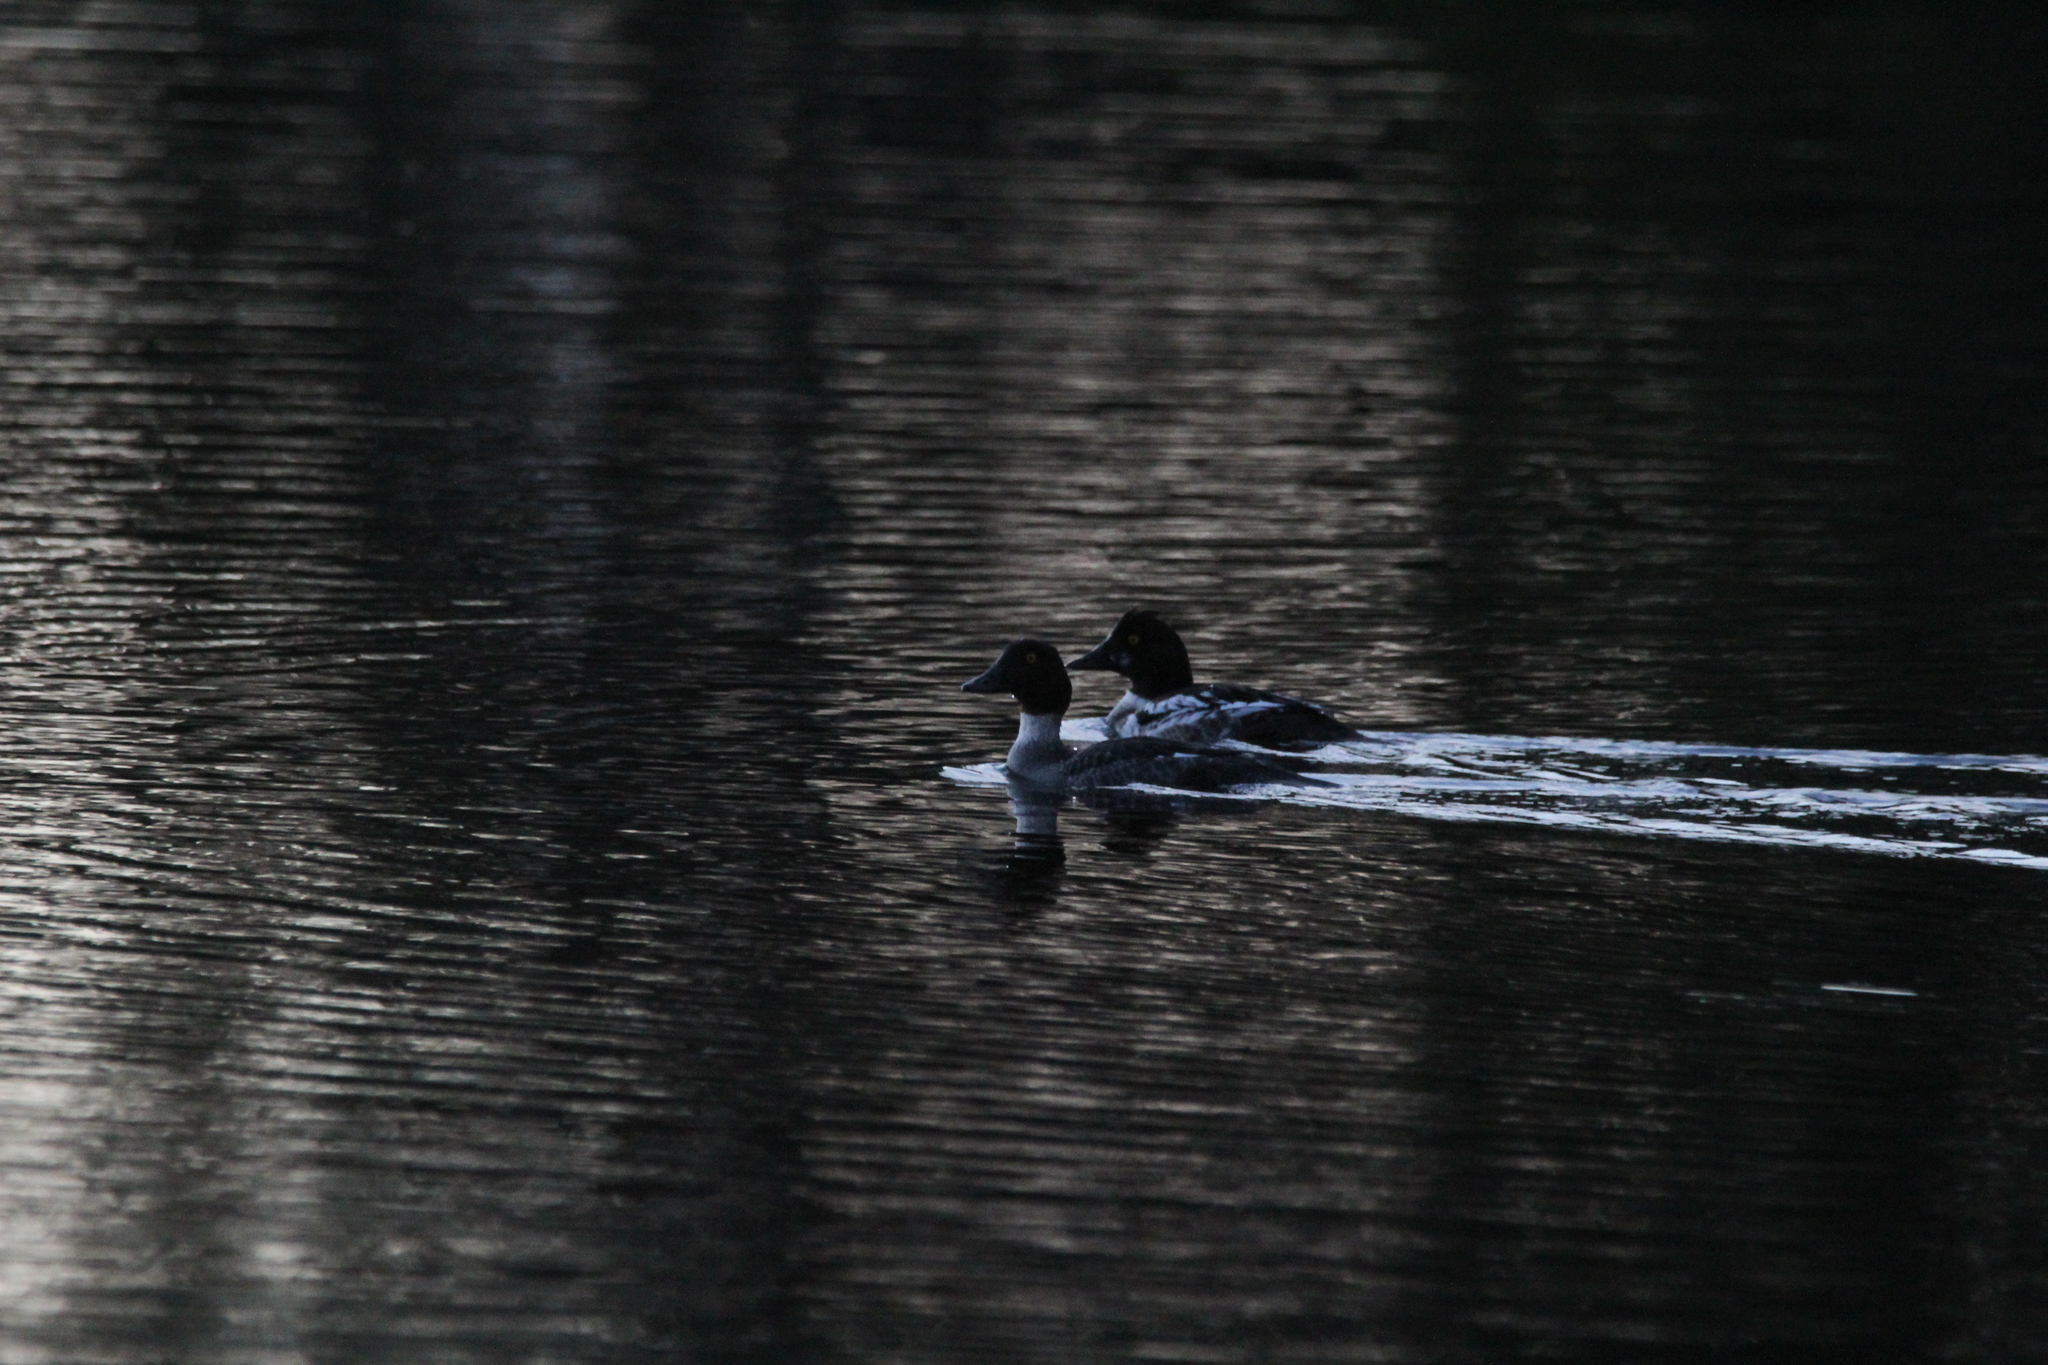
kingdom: Animalia
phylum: Chordata
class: Aves
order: Anseriformes
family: Anatidae
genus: Bucephala
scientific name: Bucephala clangula
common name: Common goldeneye
